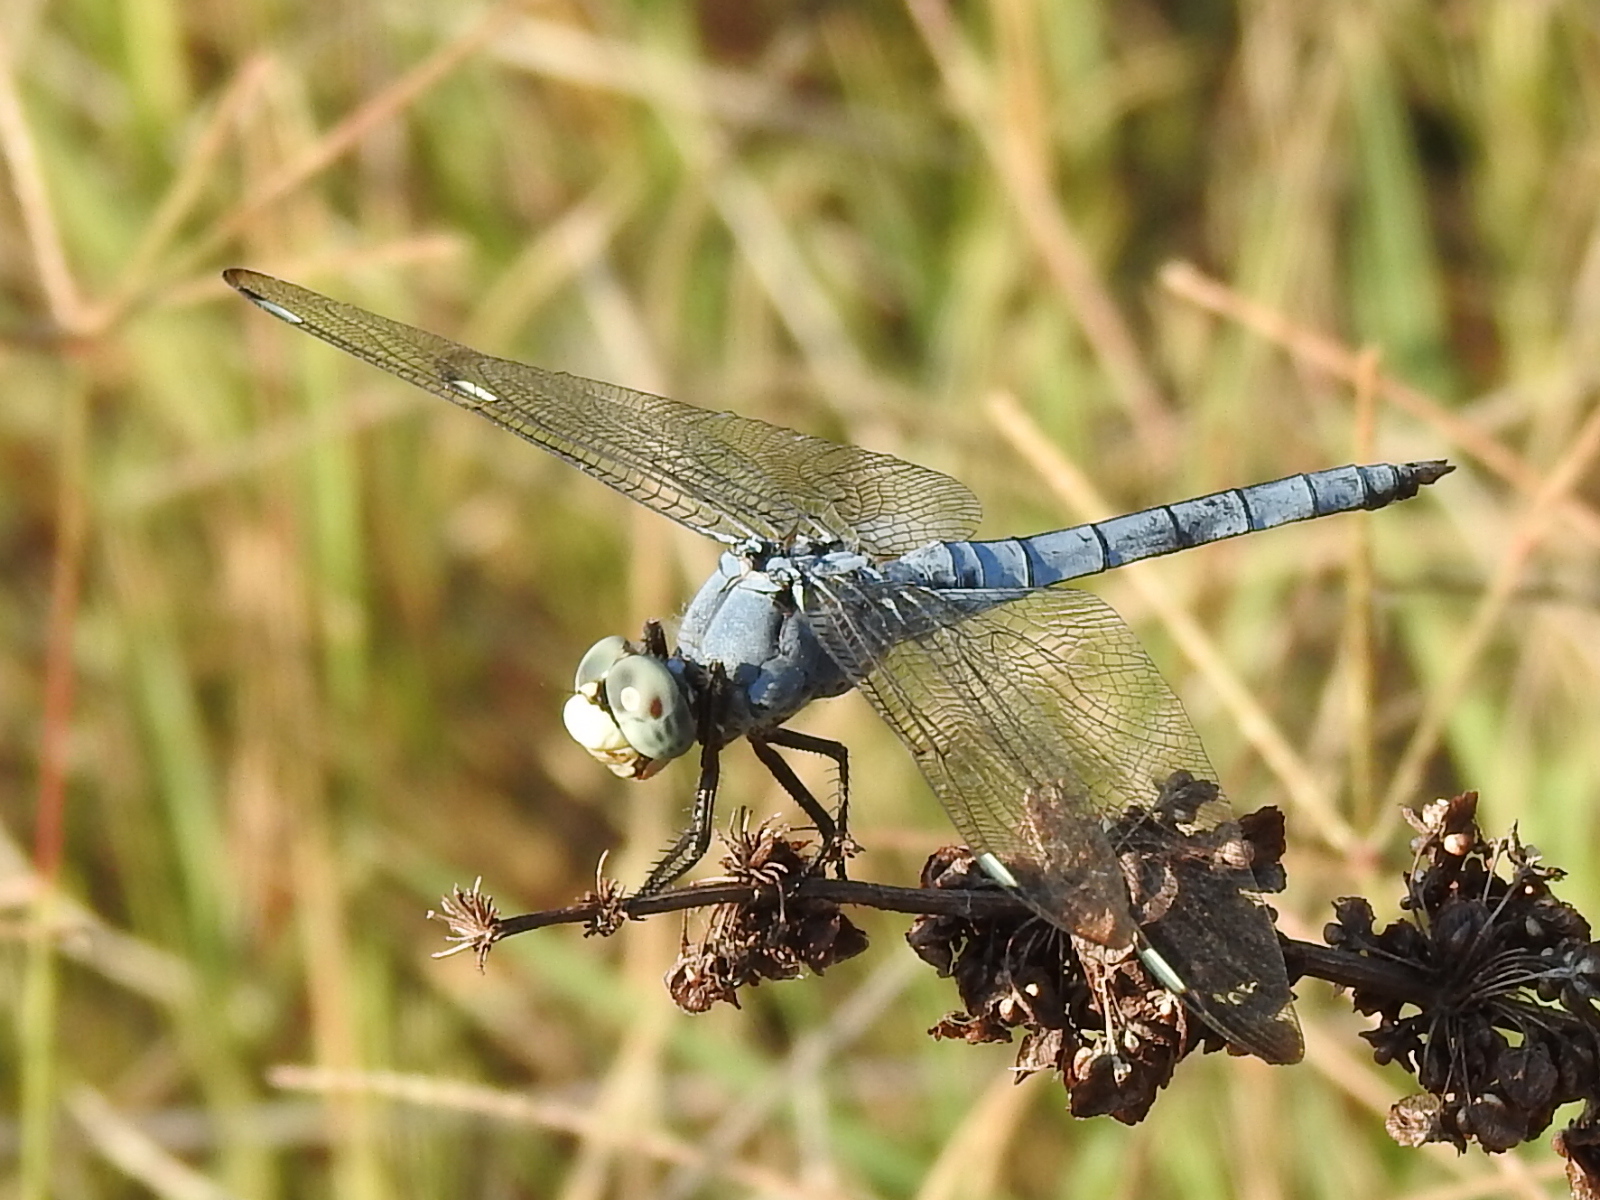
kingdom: Animalia
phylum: Arthropoda
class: Insecta
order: Odonata
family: Libellulidae
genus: Libellula
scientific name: Libellula comanche
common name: Comanche skimmer
